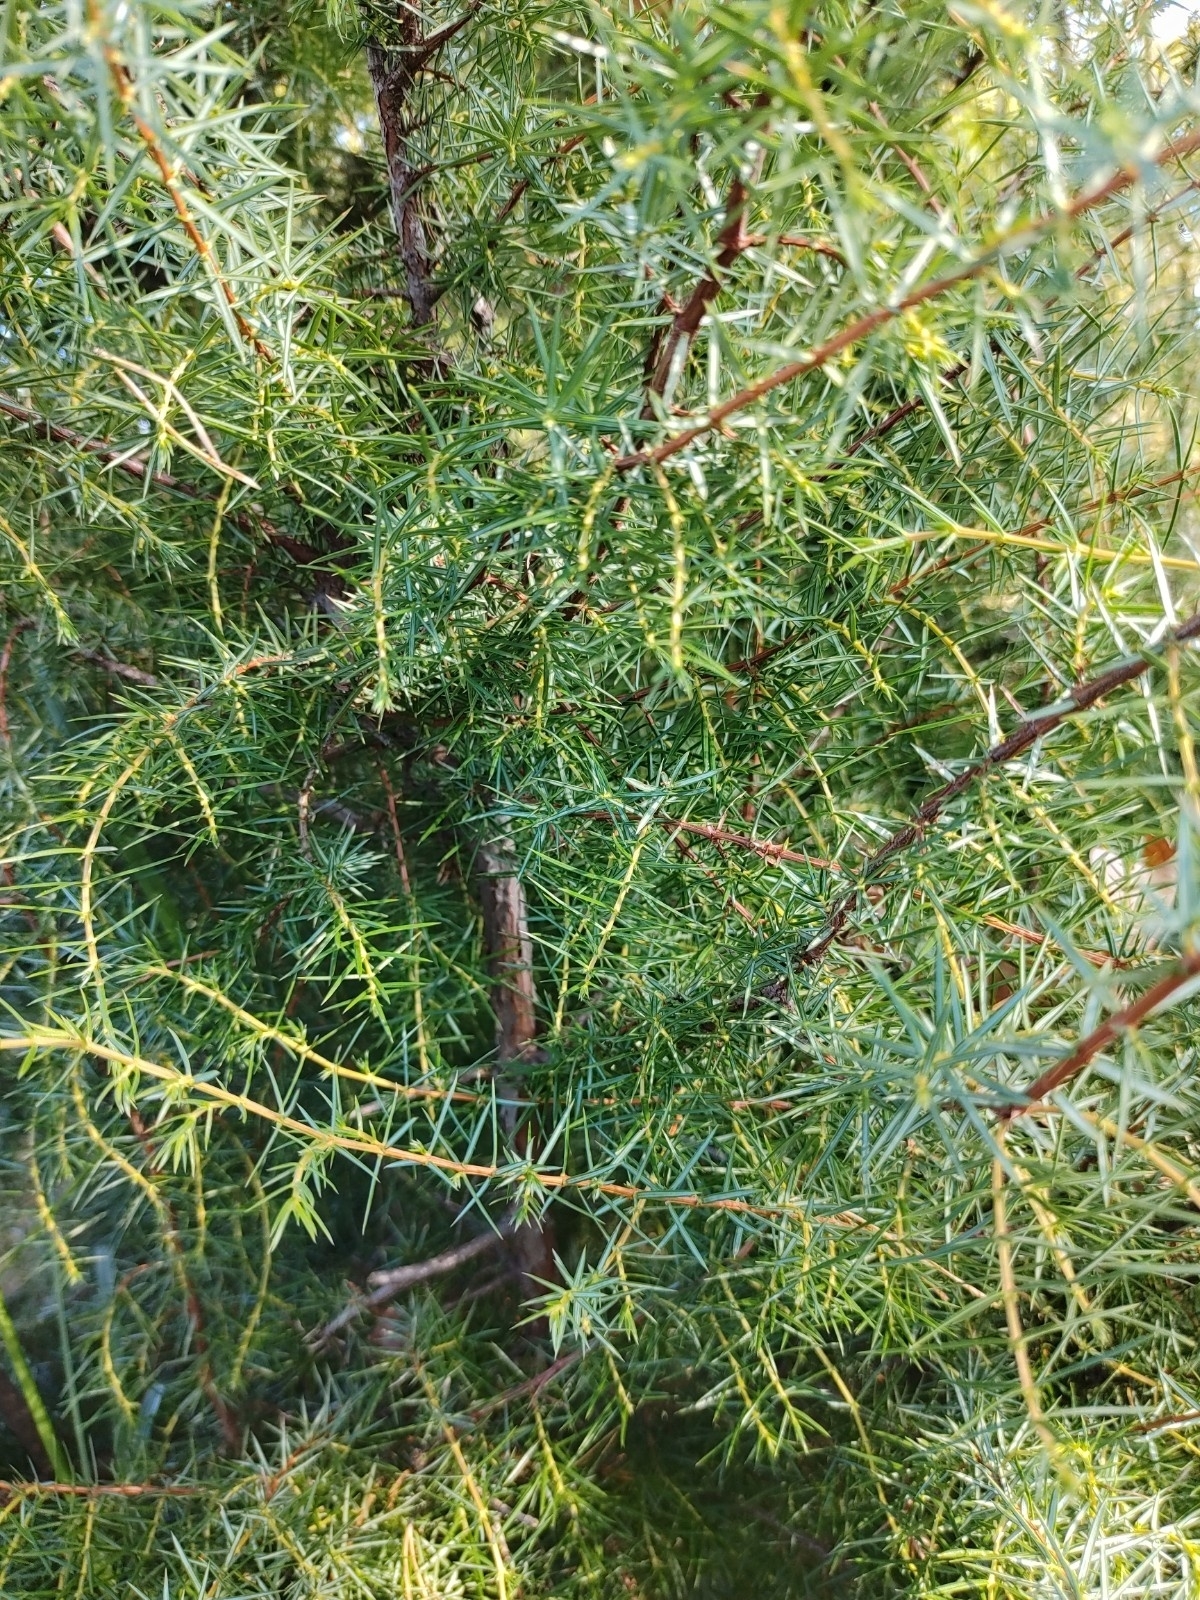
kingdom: Plantae
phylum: Tracheophyta
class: Pinopsida
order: Pinales
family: Cupressaceae
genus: Juniperus
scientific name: Juniperus communis
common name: Common juniper
